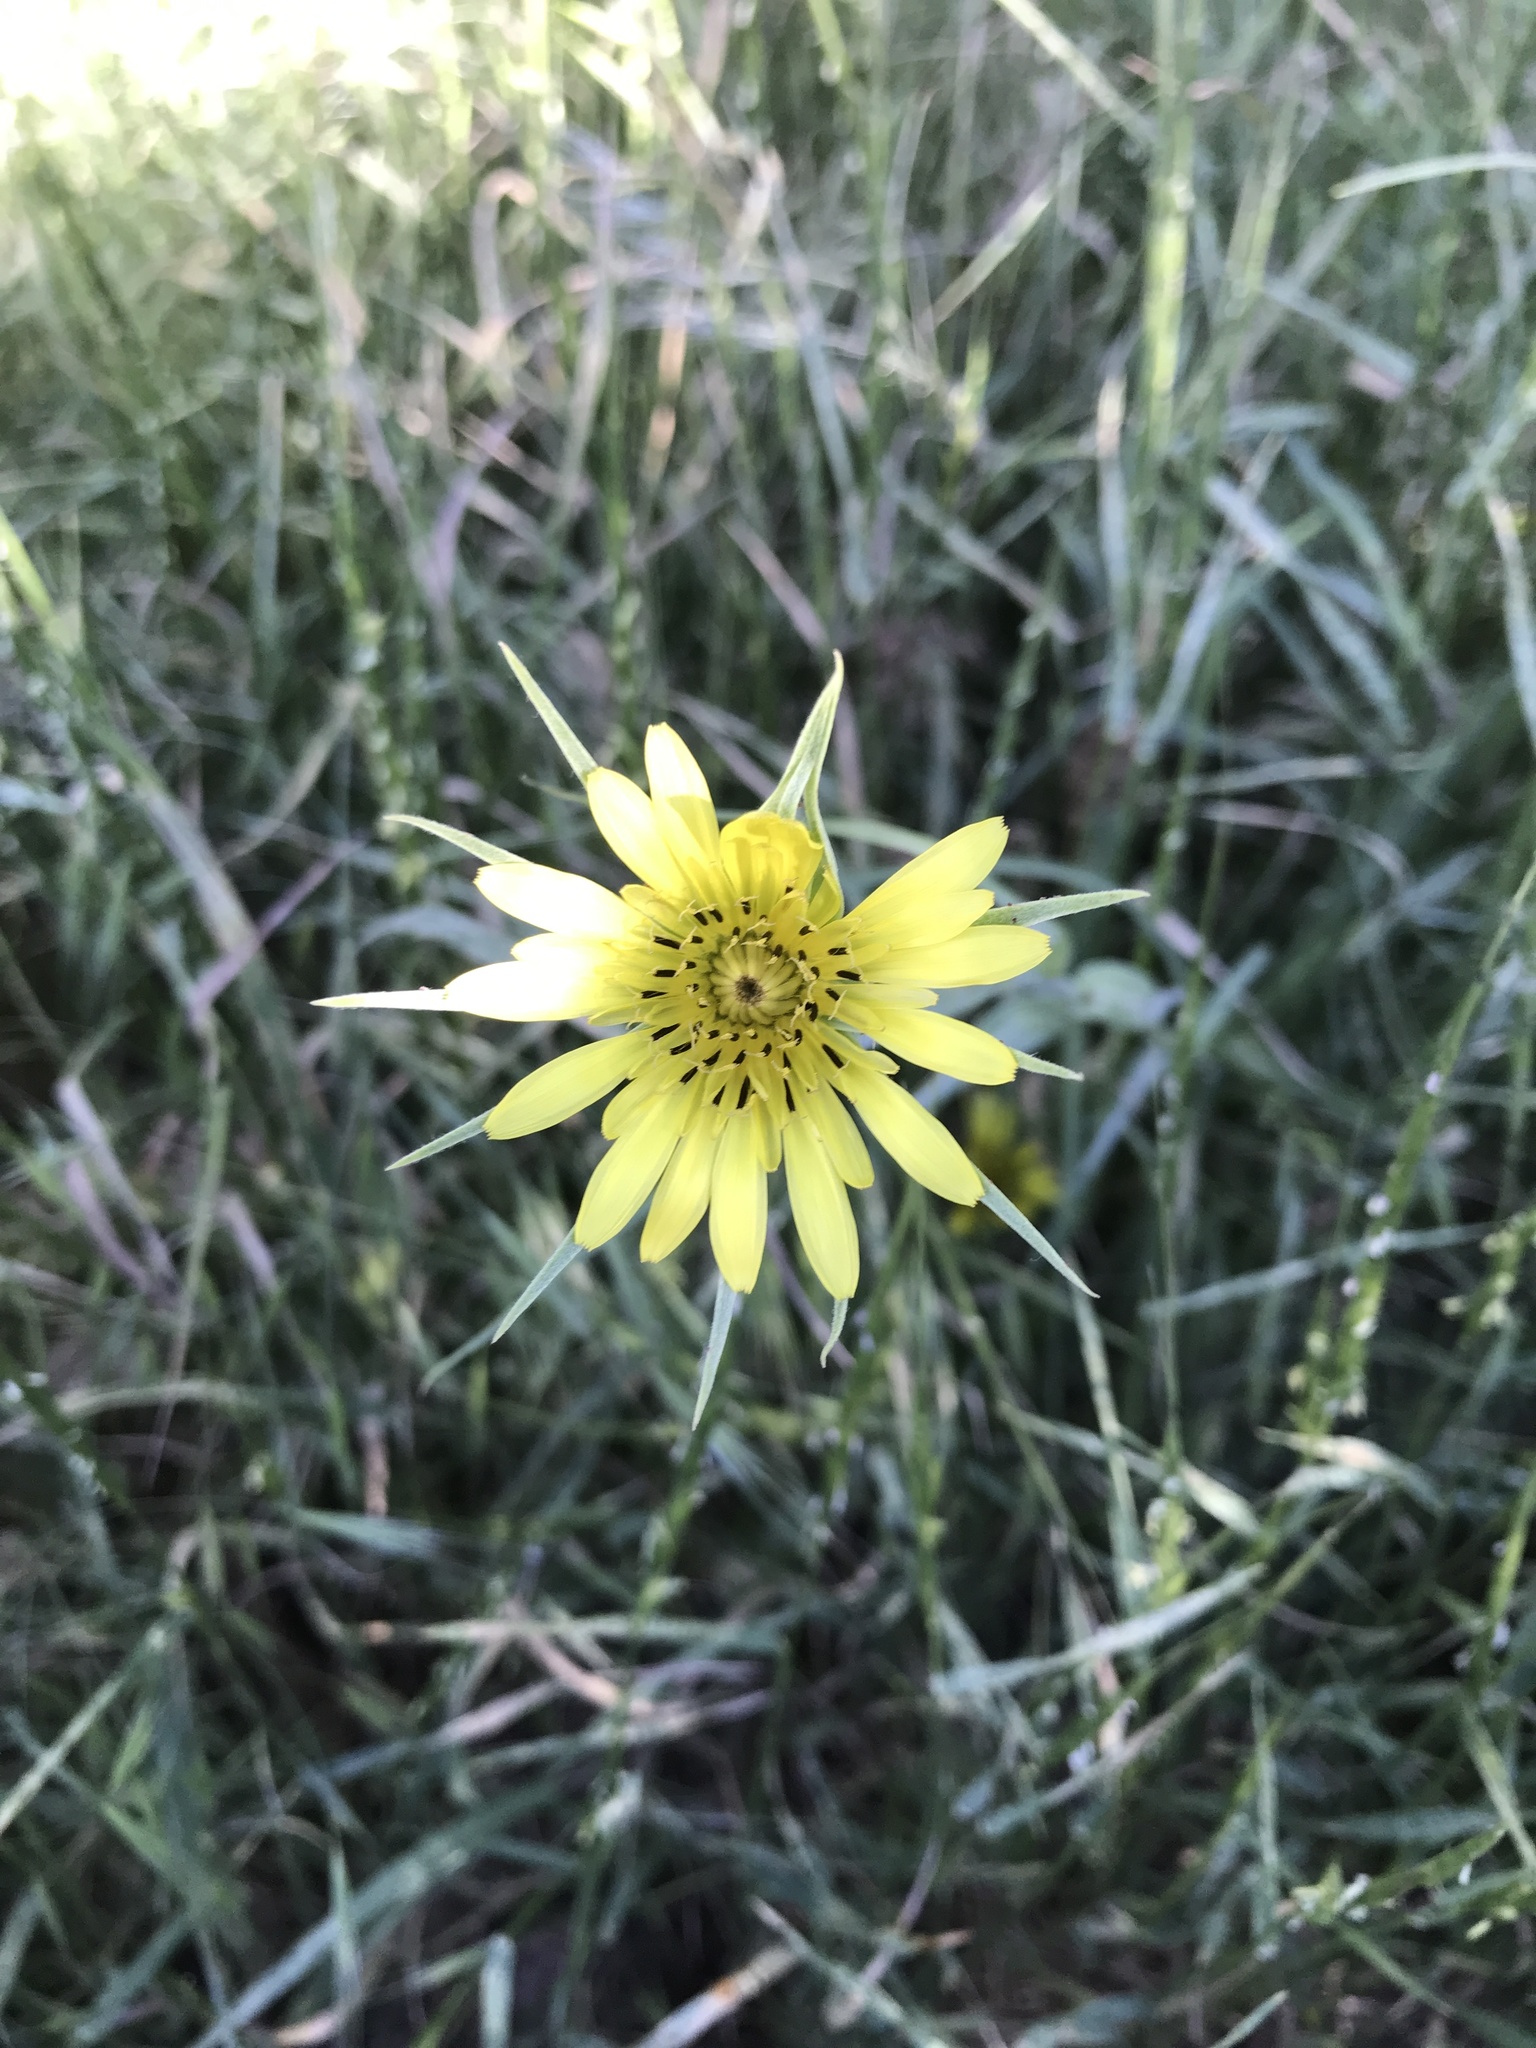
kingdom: Plantae
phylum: Tracheophyta
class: Magnoliopsida
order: Asterales
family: Asteraceae
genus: Tragopogon
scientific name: Tragopogon dubius
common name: Yellow salsify
